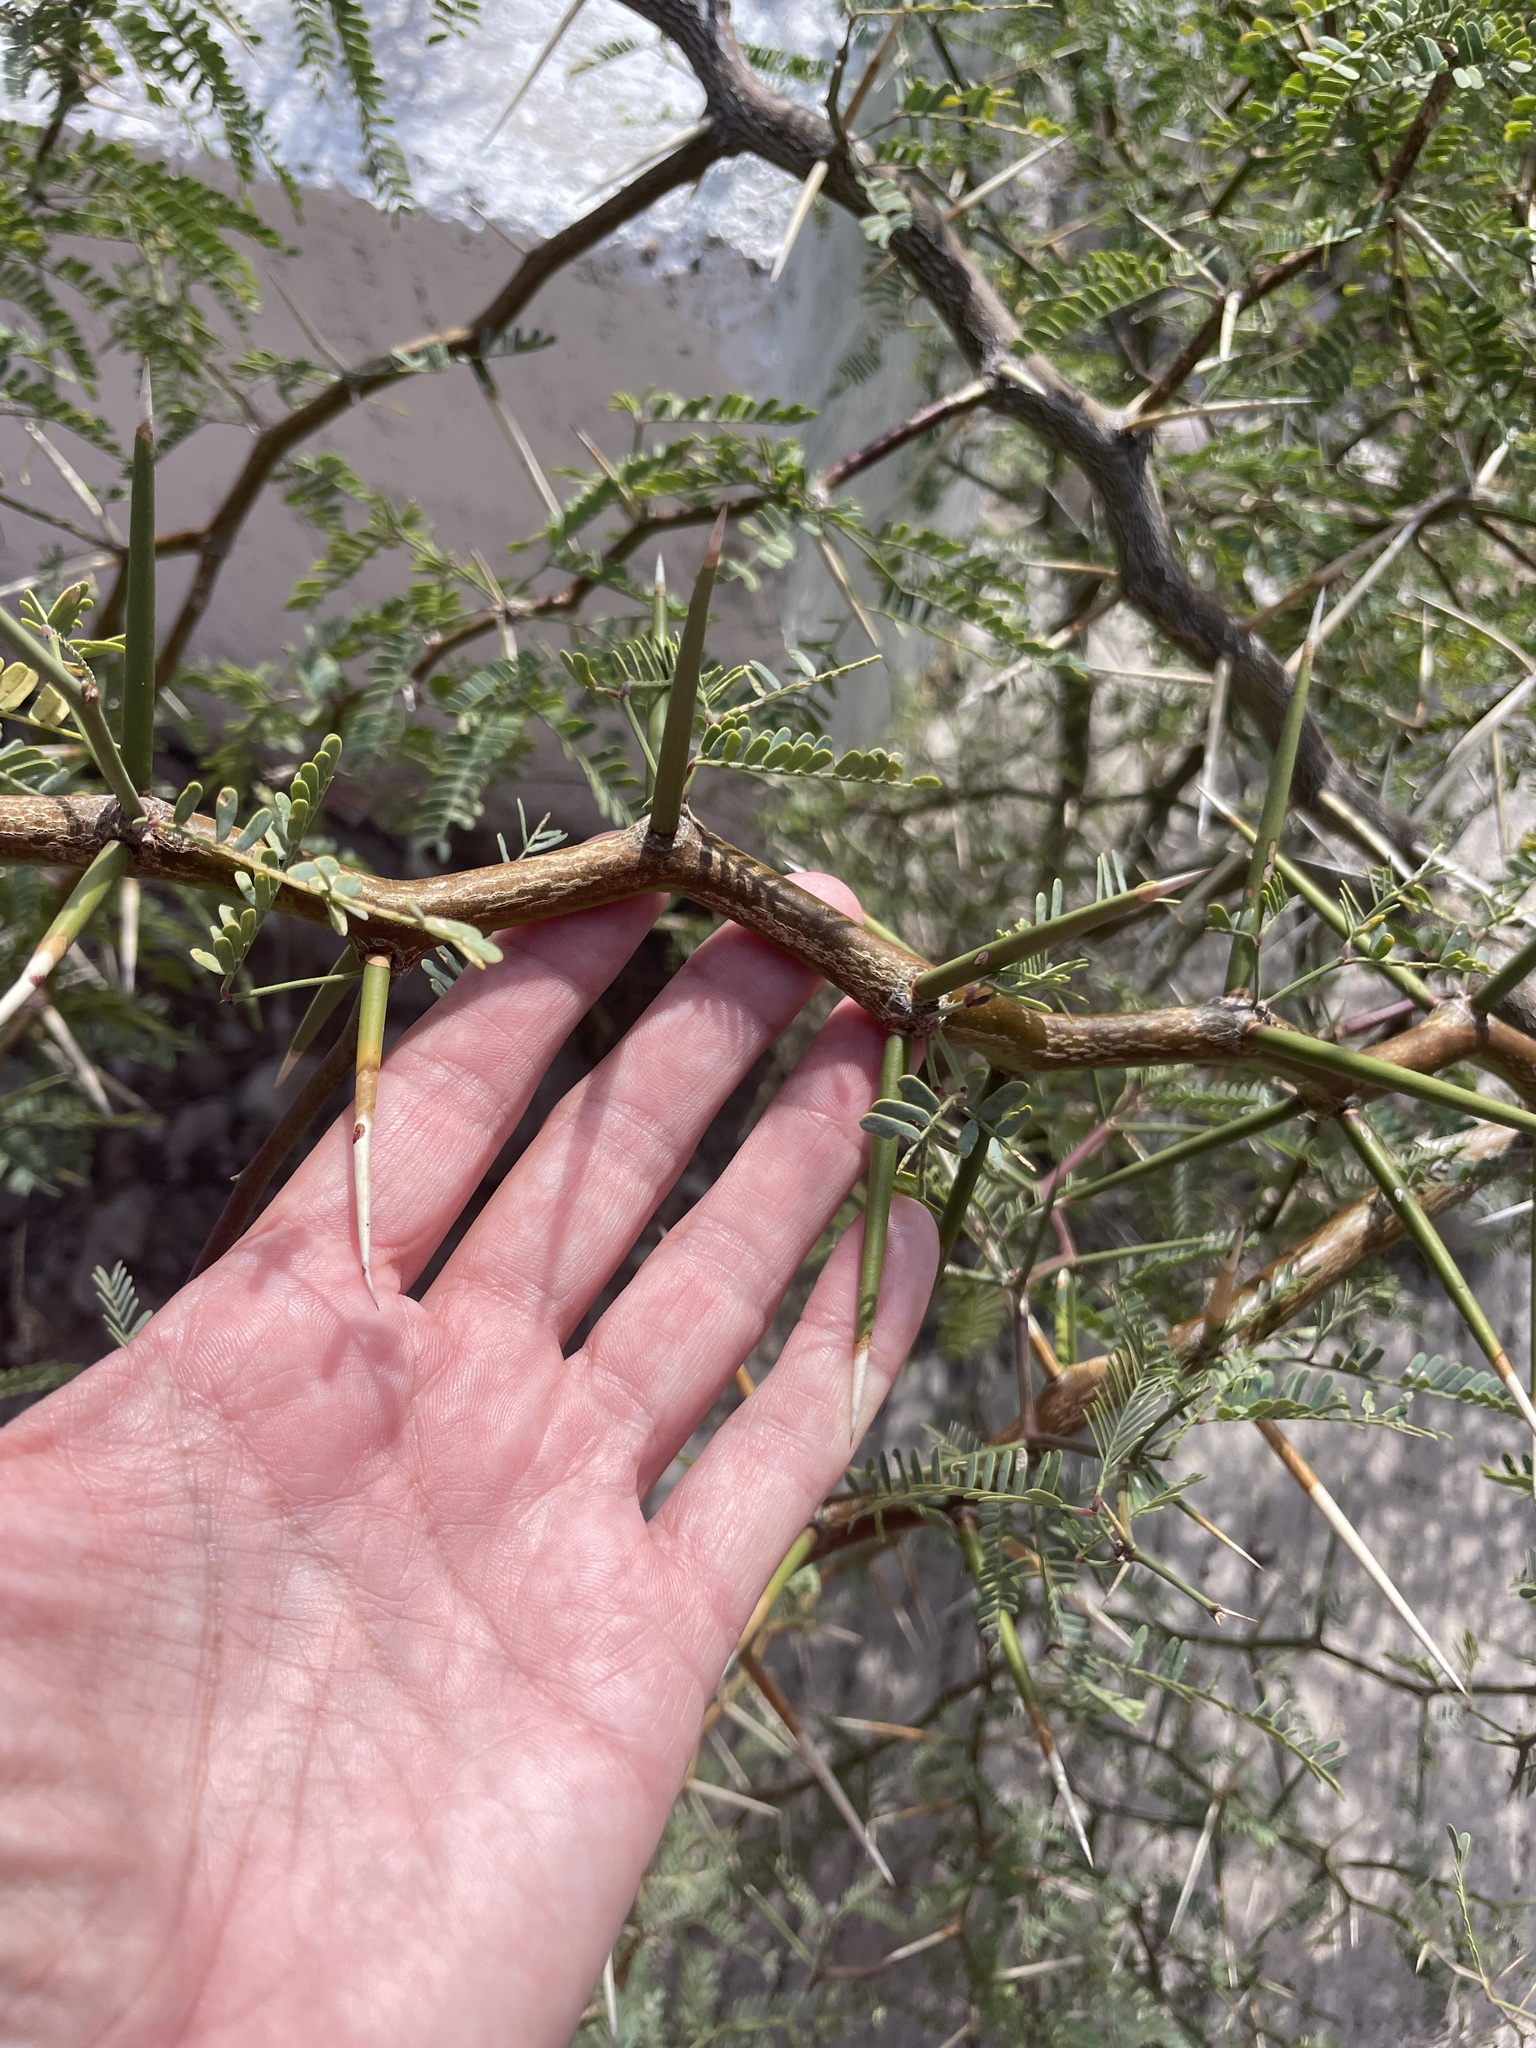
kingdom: Plantae
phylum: Tracheophyta
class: Magnoliopsida
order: Fabales
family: Fabaceae
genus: Prosopis
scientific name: Prosopis articulata
